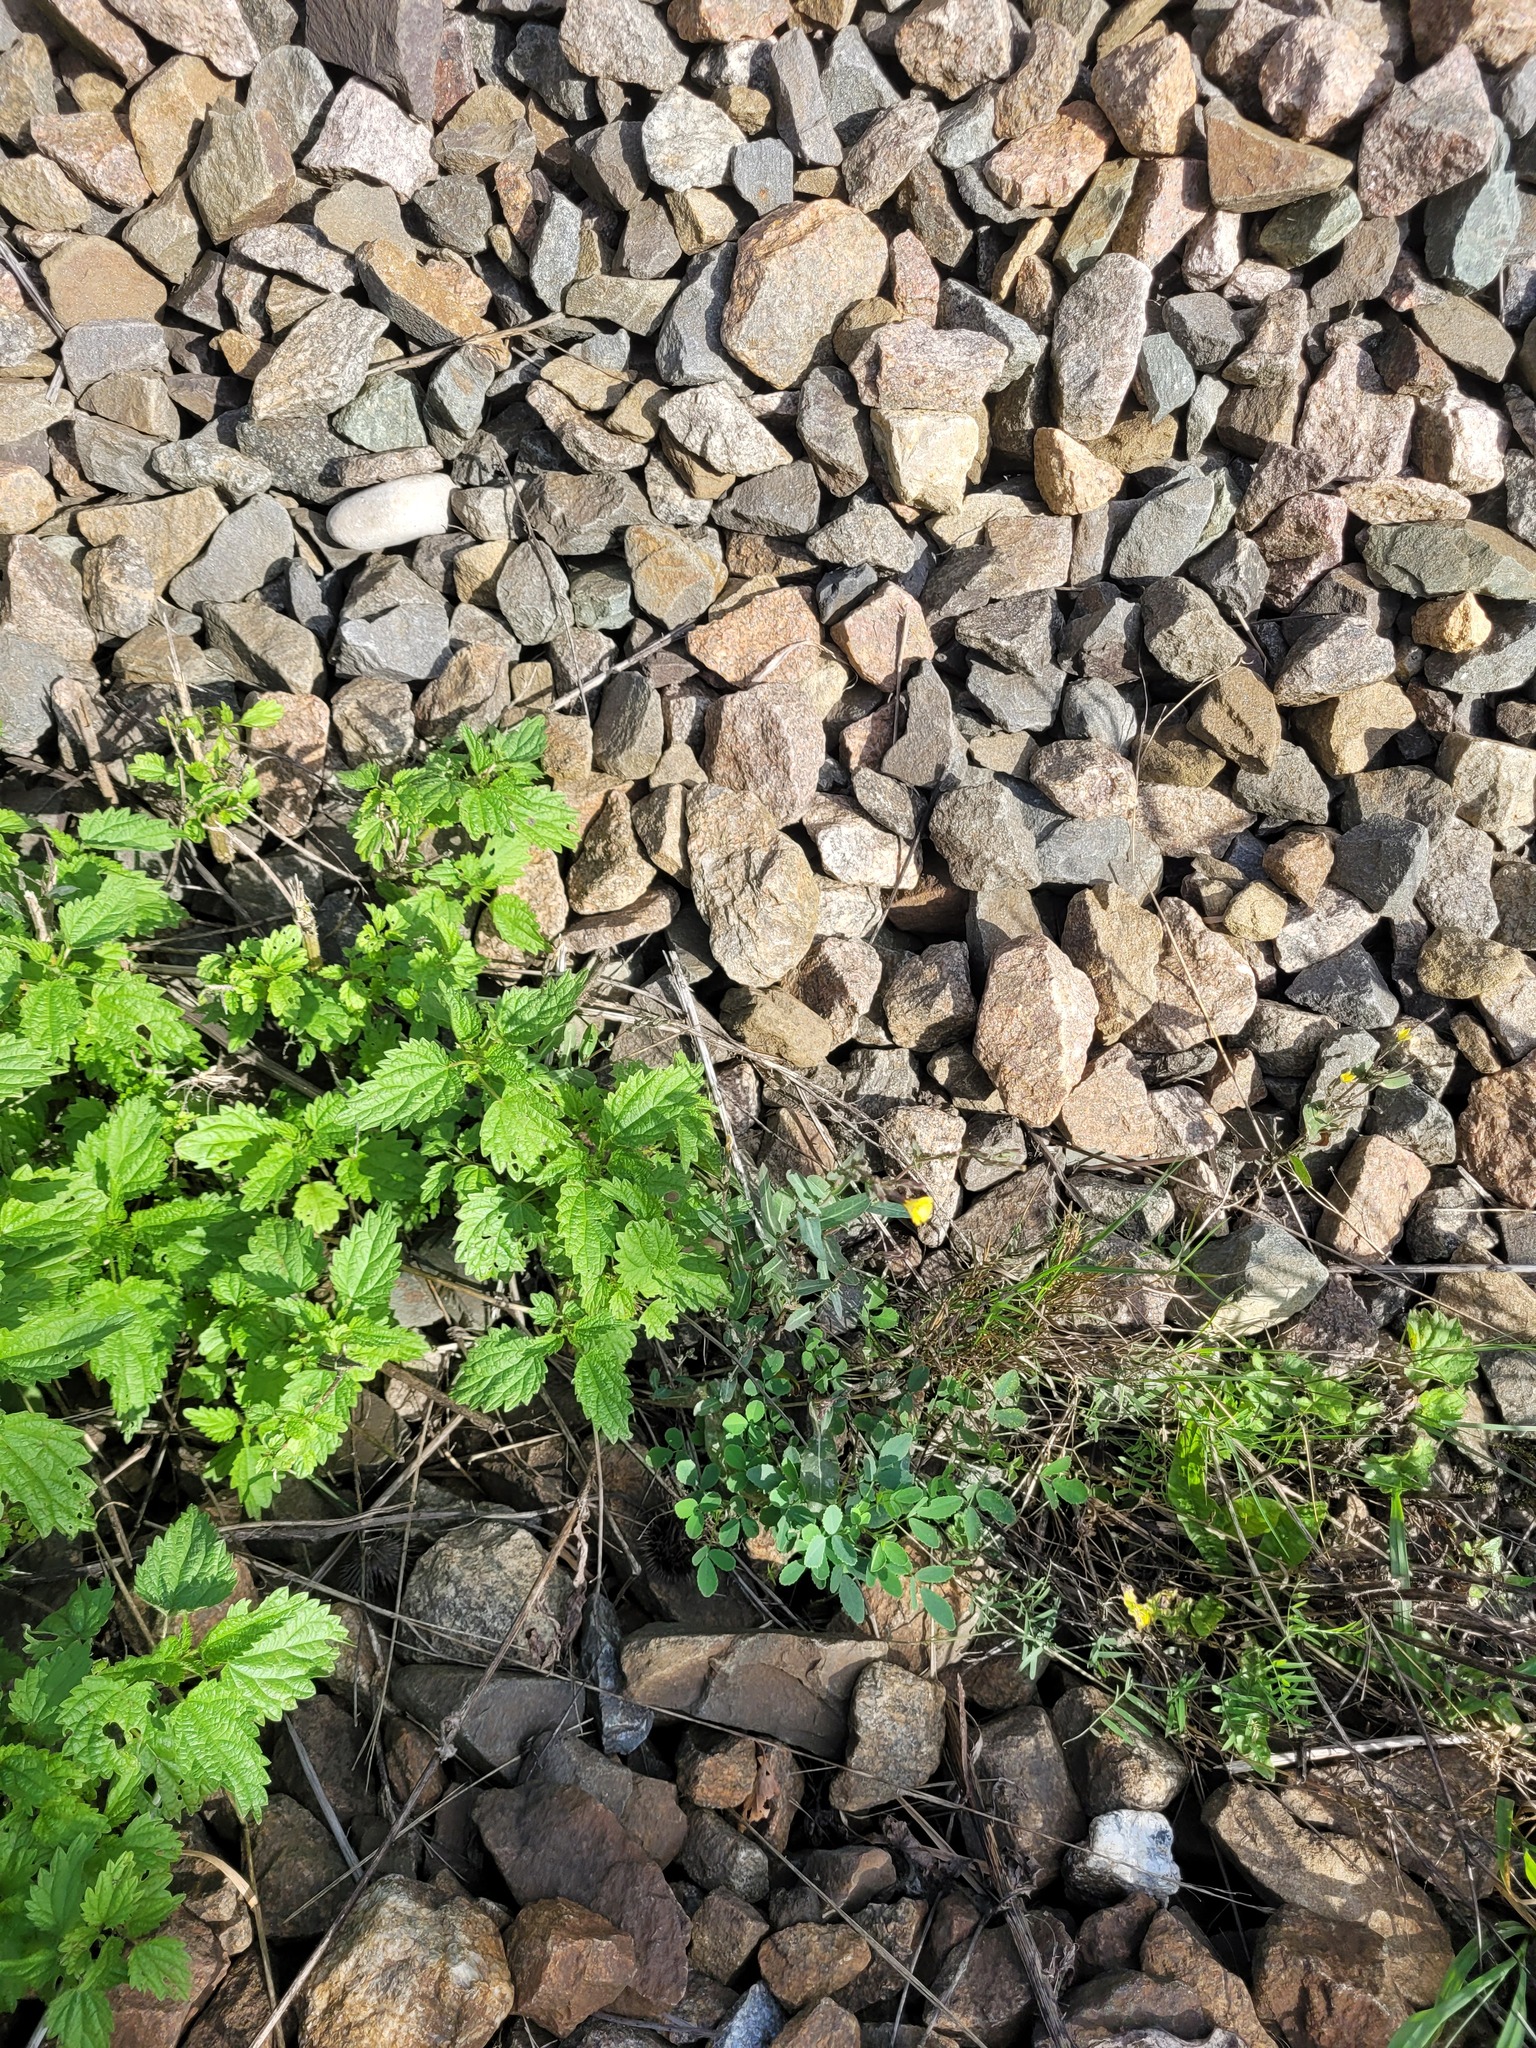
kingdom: Plantae
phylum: Tracheophyta
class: Magnoliopsida
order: Asterales
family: Asteraceae
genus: Lactuca
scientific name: Lactuca serriola
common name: Prickly lettuce
